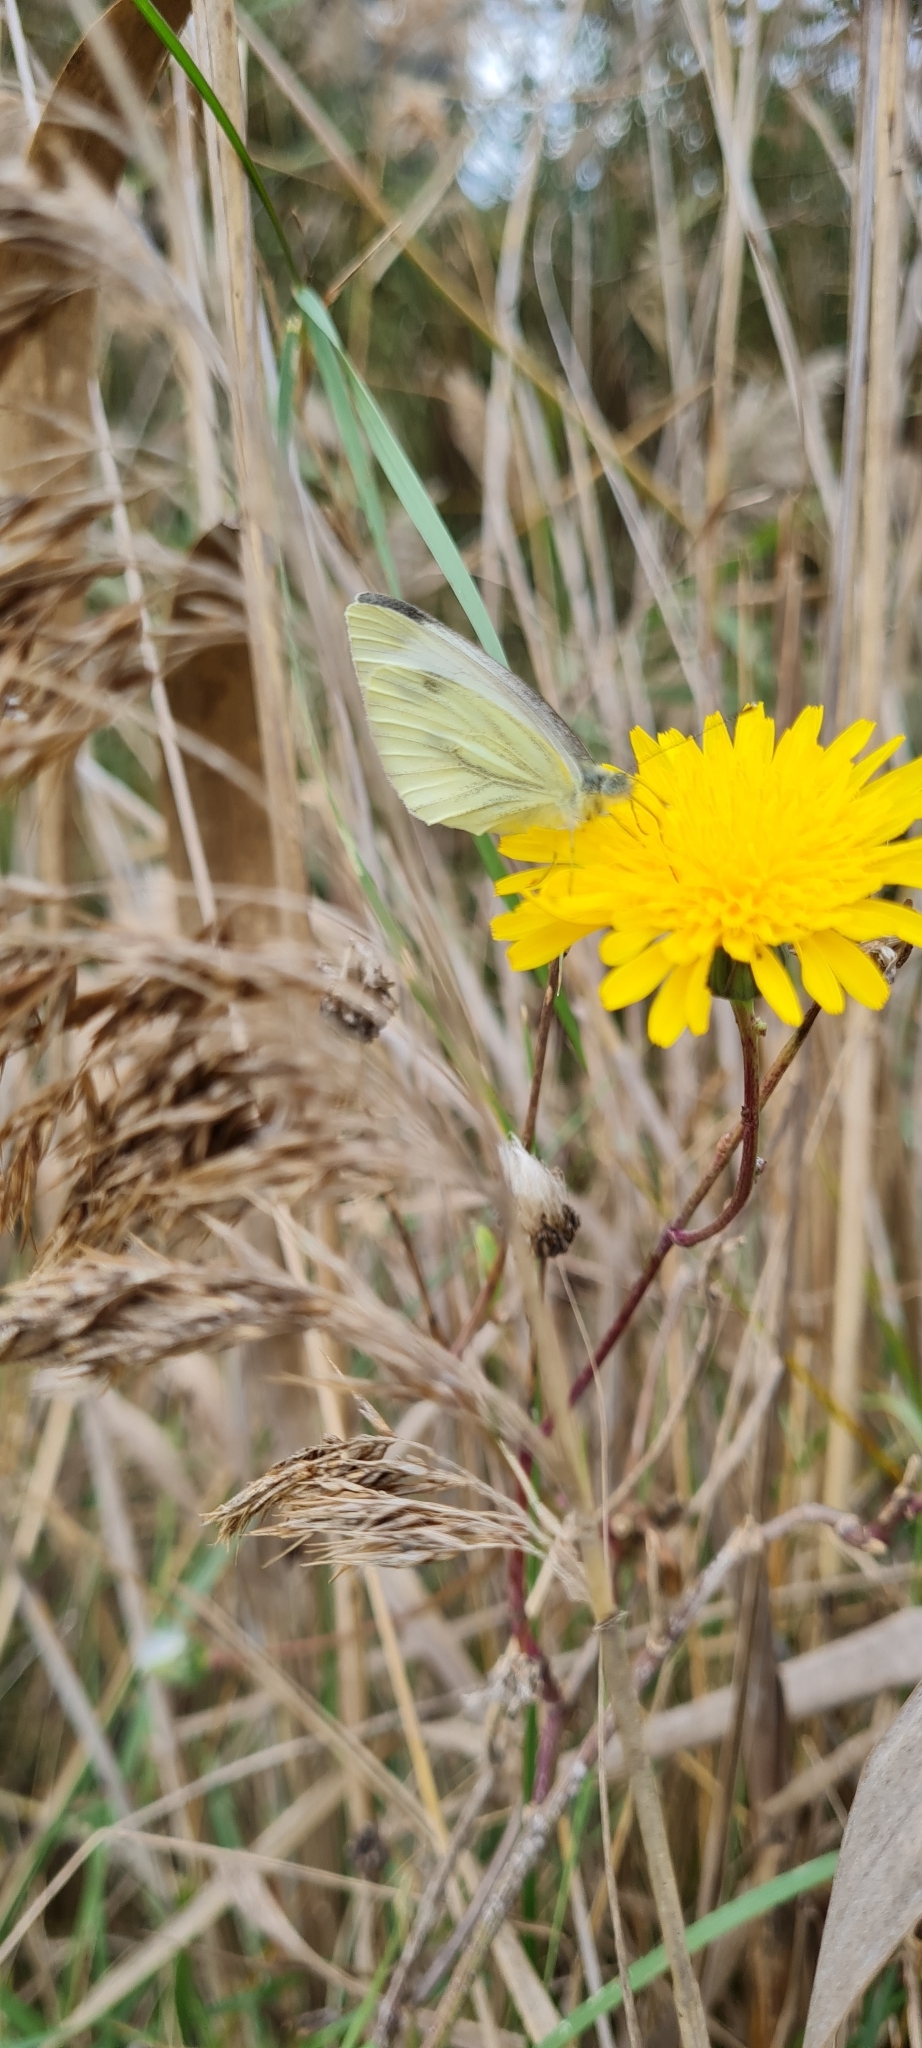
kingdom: Animalia
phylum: Arthropoda
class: Insecta
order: Lepidoptera
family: Pieridae
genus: Pieris
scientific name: Pieris napi
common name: Green-veined white
